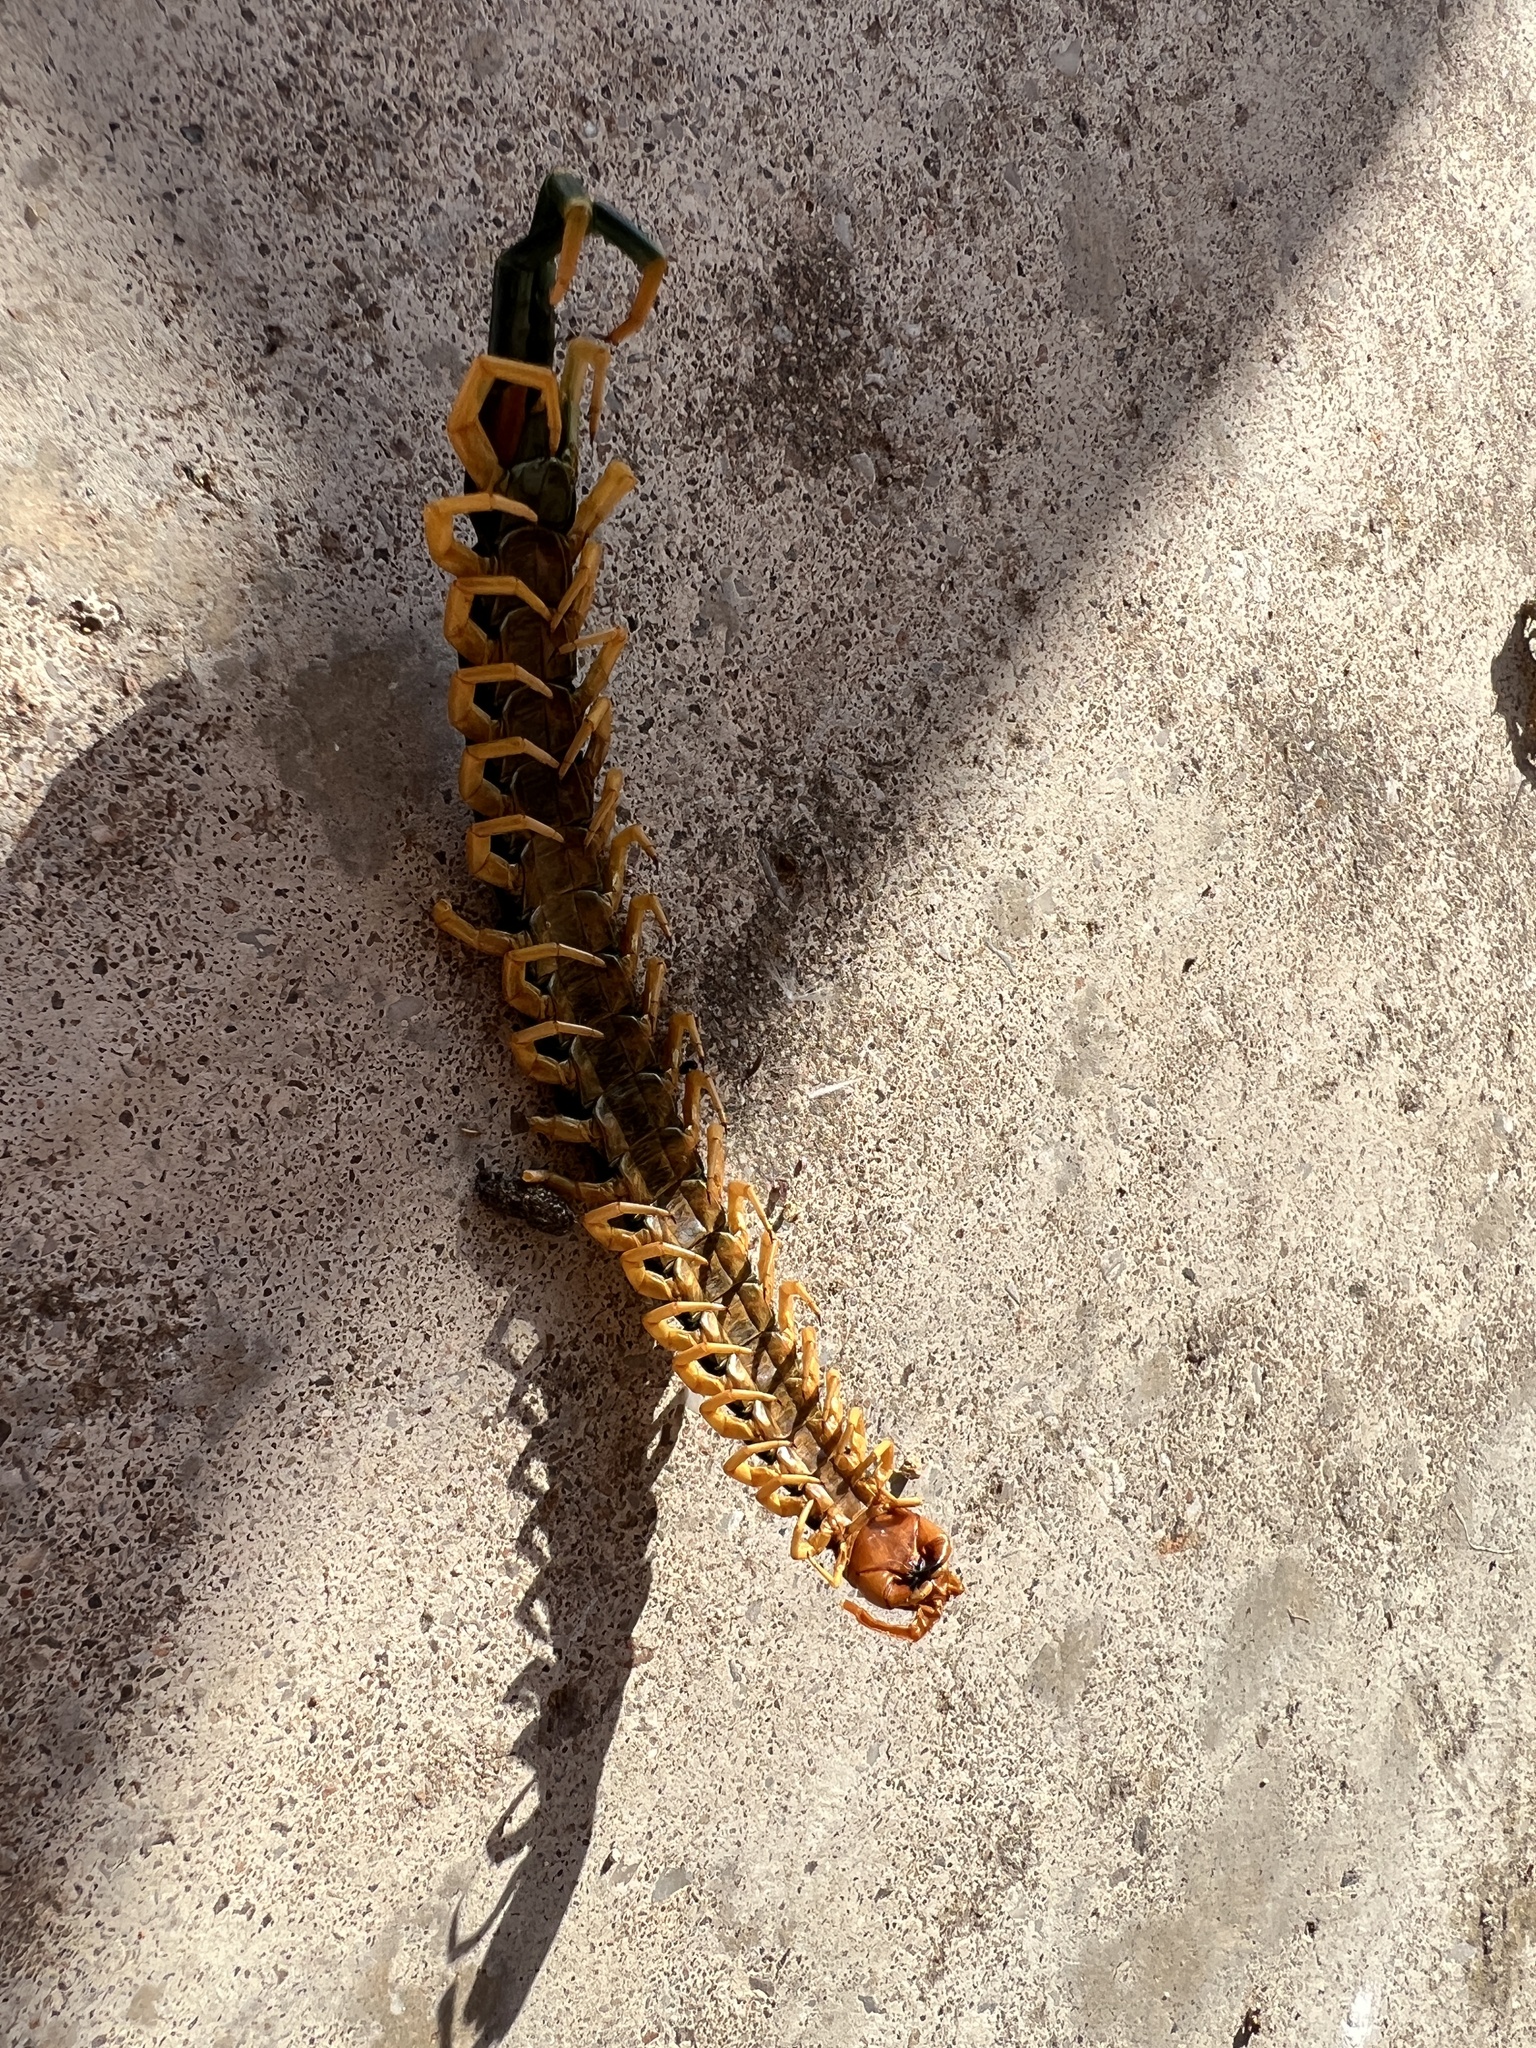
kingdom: Animalia
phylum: Arthropoda
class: Chilopoda
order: Scolopendromorpha
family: Scolopendridae
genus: Scolopendra
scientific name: Scolopendra heros
